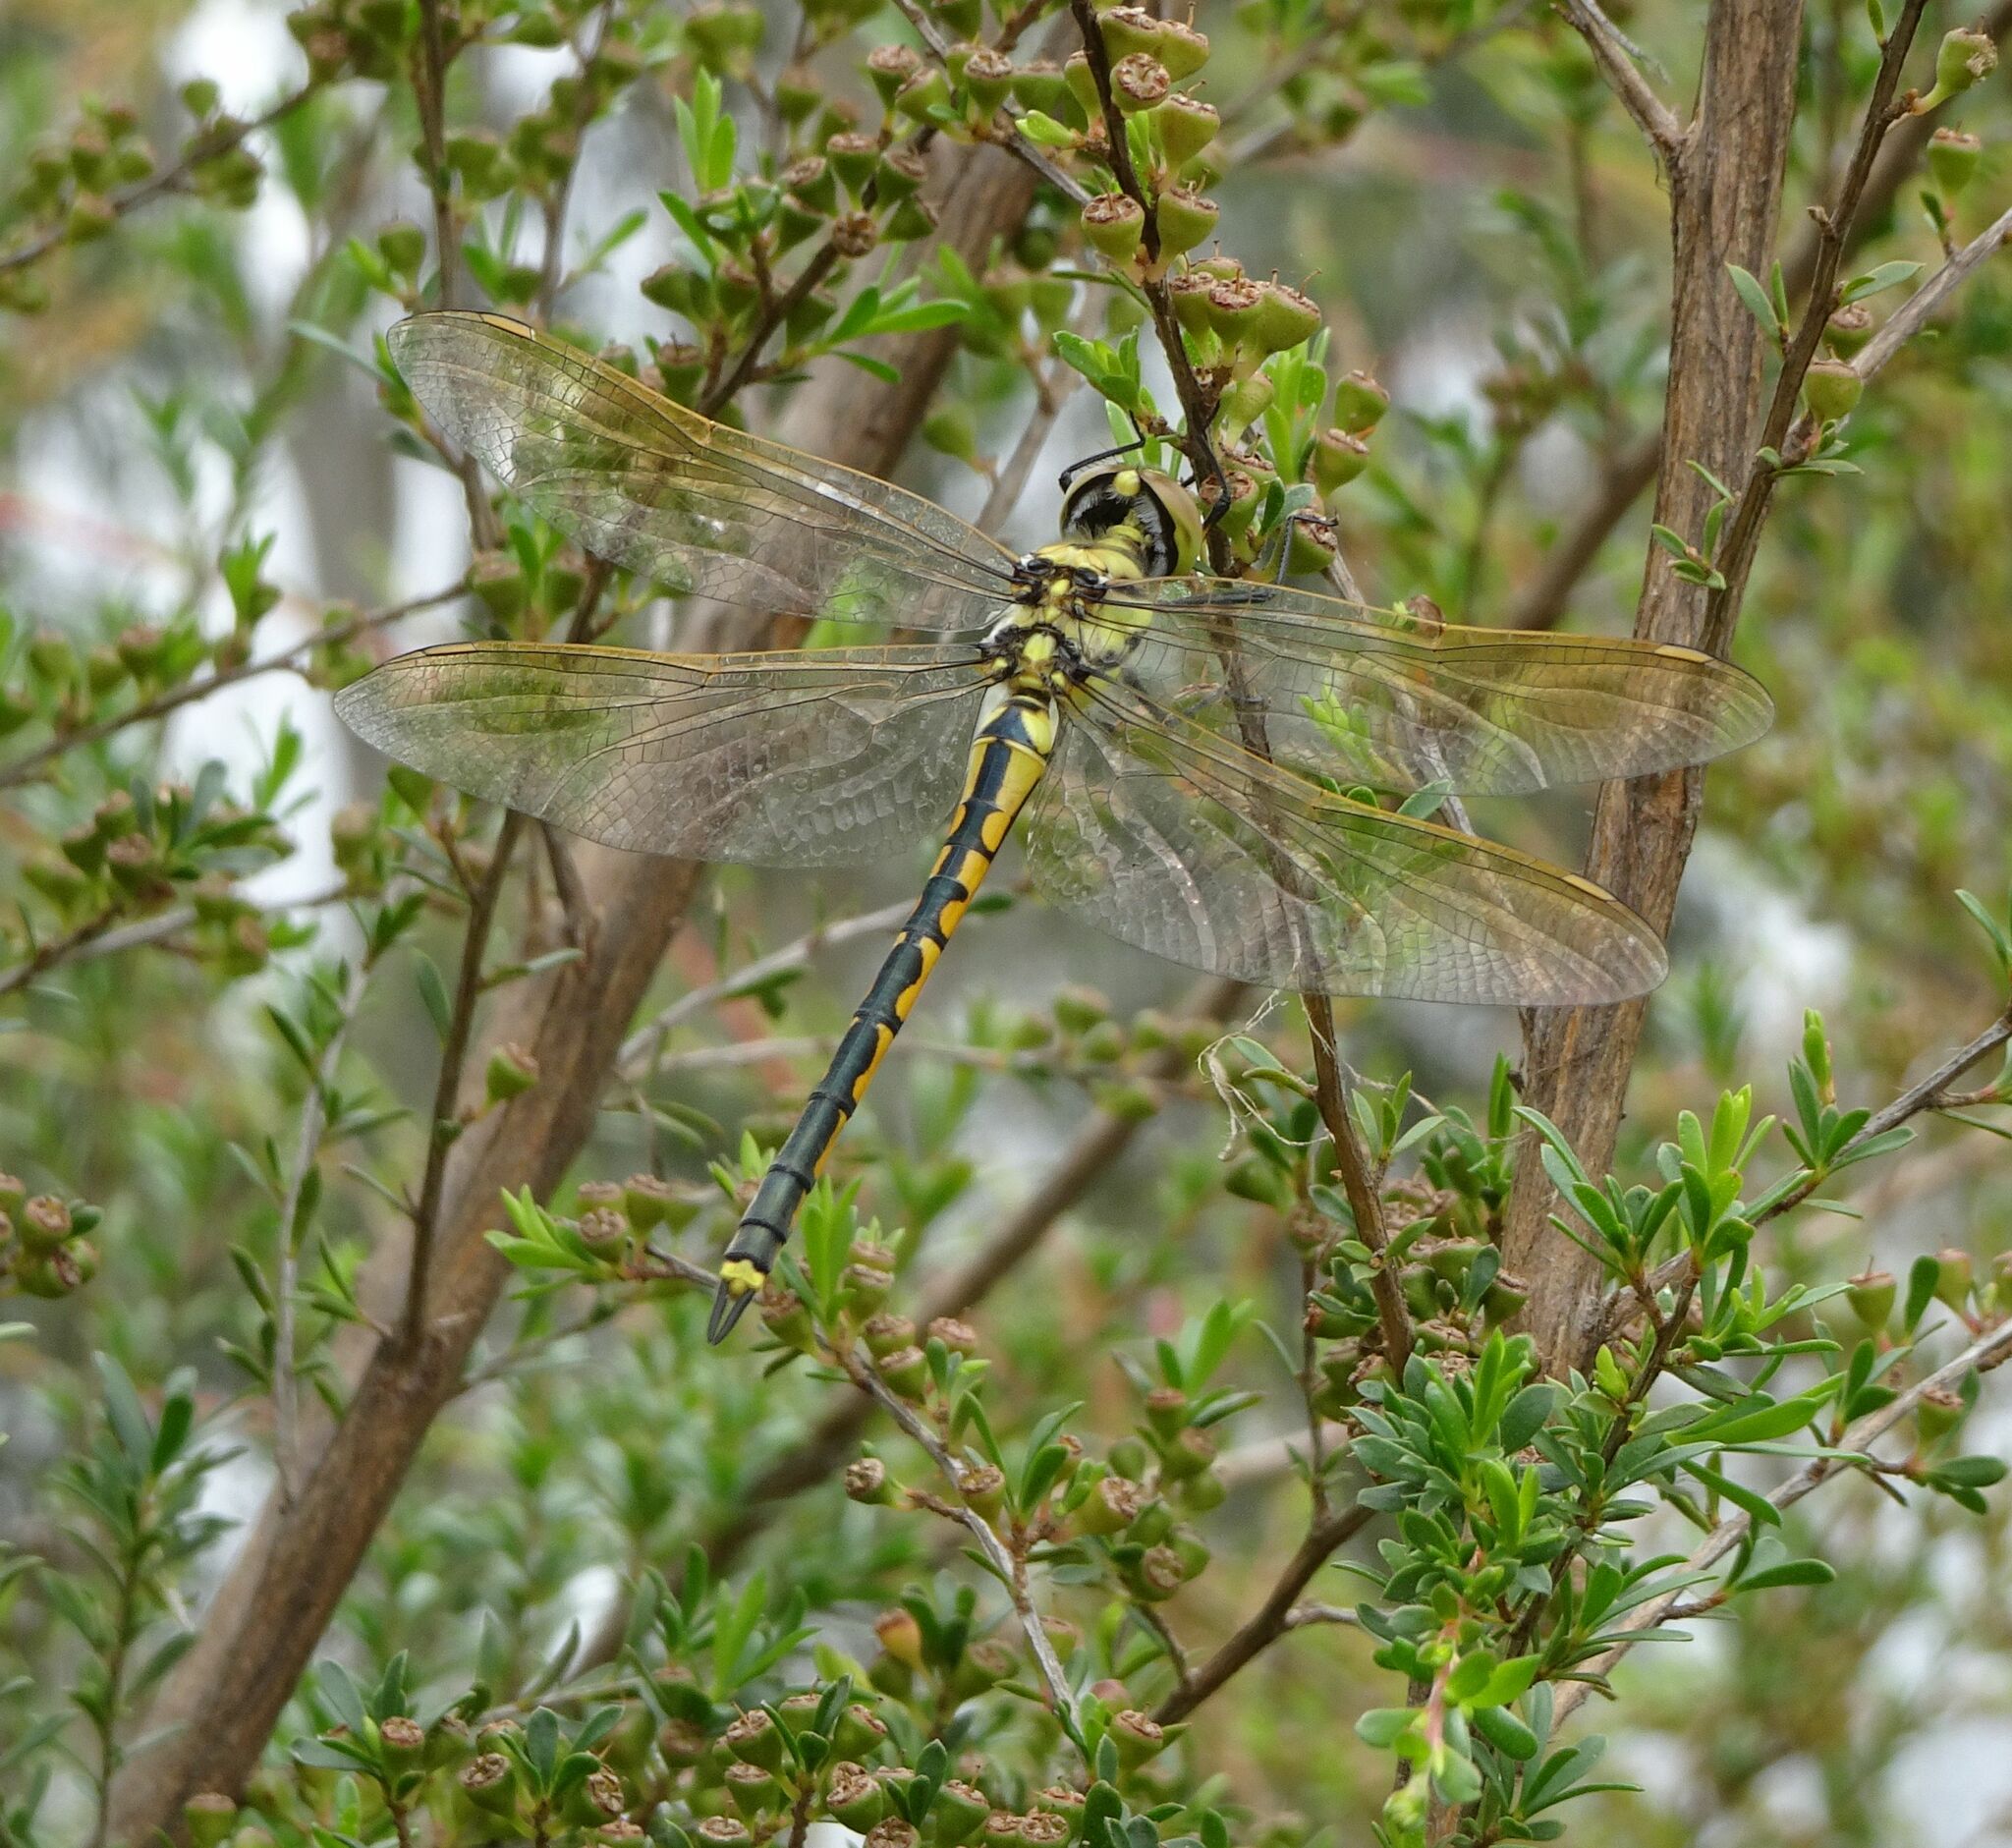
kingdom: Animalia
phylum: Arthropoda
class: Insecta
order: Odonata
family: Corduliidae
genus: Hemicordulia
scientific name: Hemicordulia tau
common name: Tau emerald
